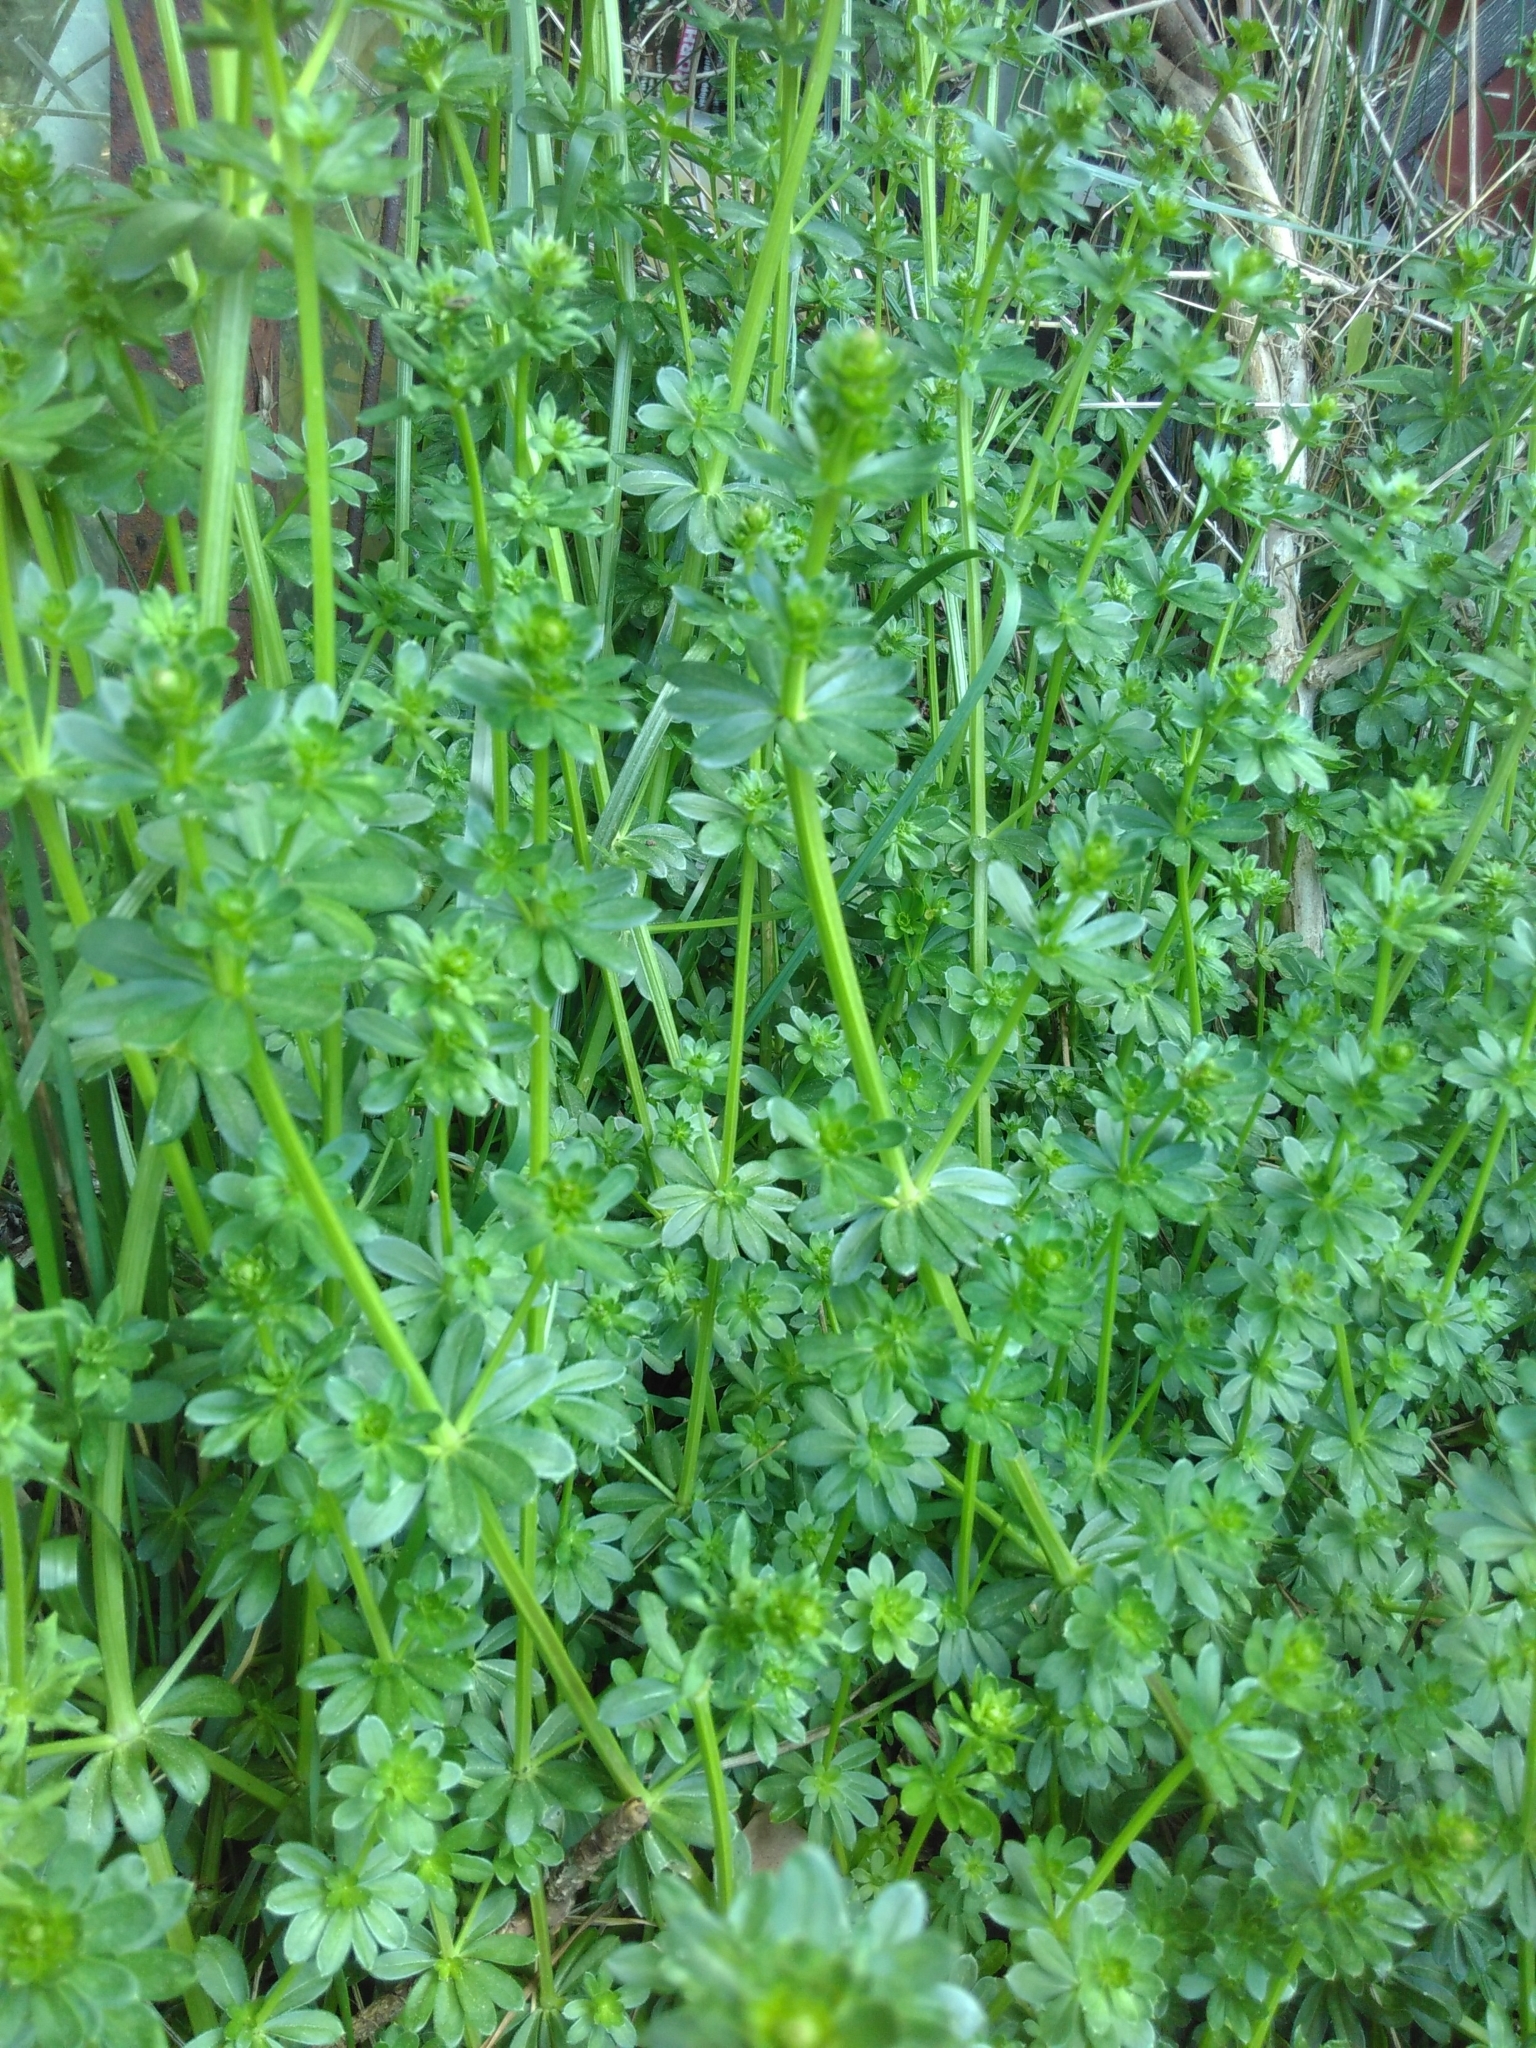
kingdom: Plantae
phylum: Tracheophyta
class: Magnoliopsida
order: Gentianales
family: Rubiaceae
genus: Galium
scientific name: Galium mollugo
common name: Hedge bedstraw
